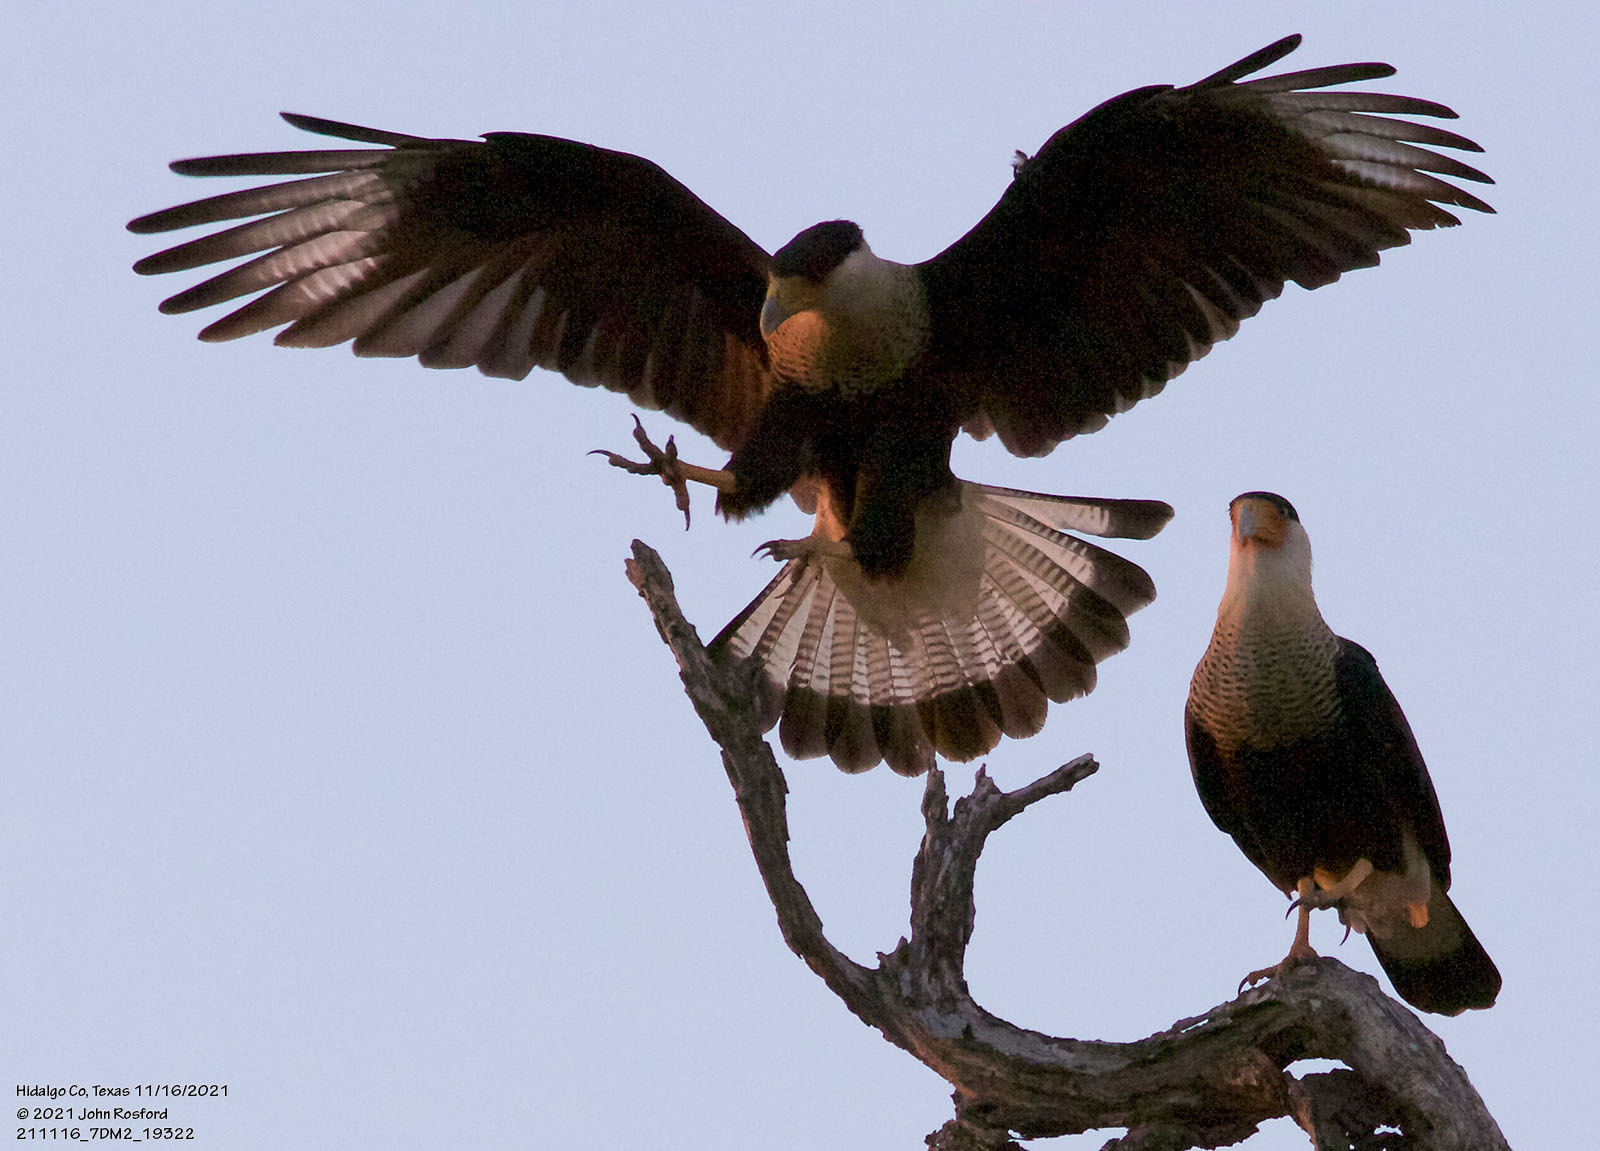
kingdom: Animalia
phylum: Chordata
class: Aves
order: Falconiformes
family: Falconidae
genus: Caracara
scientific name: Caracara plancus
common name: Southern caracara
